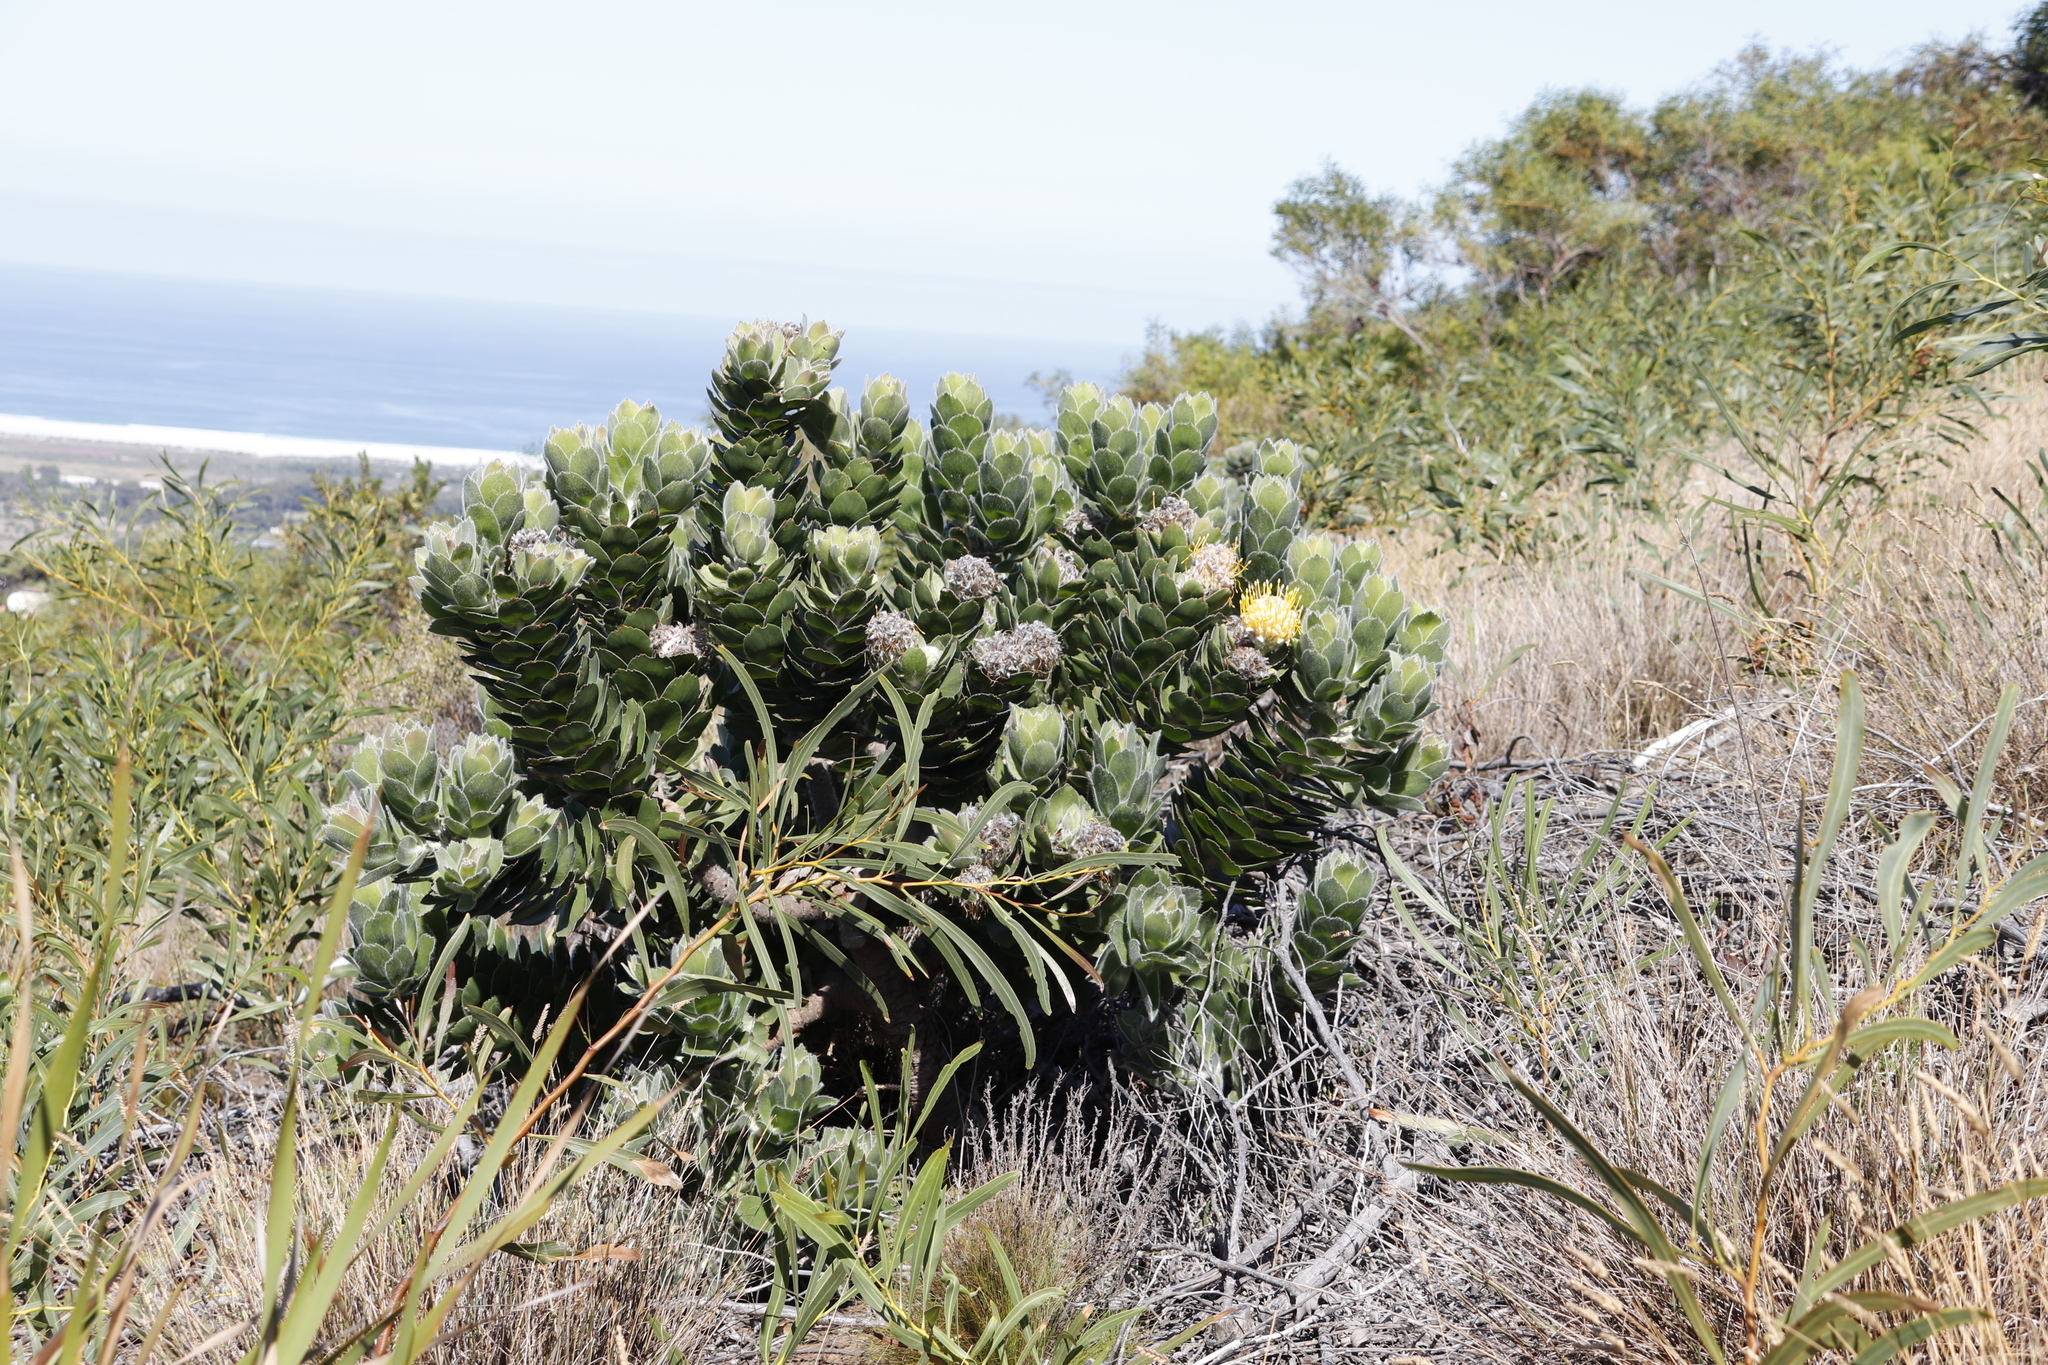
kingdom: Plantae
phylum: Tracheophyta
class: Magnoliopsida
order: Proteales
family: Proteaceae
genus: Leucospermum
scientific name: Leucospermum conocarpodendron
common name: Tree pincushion
